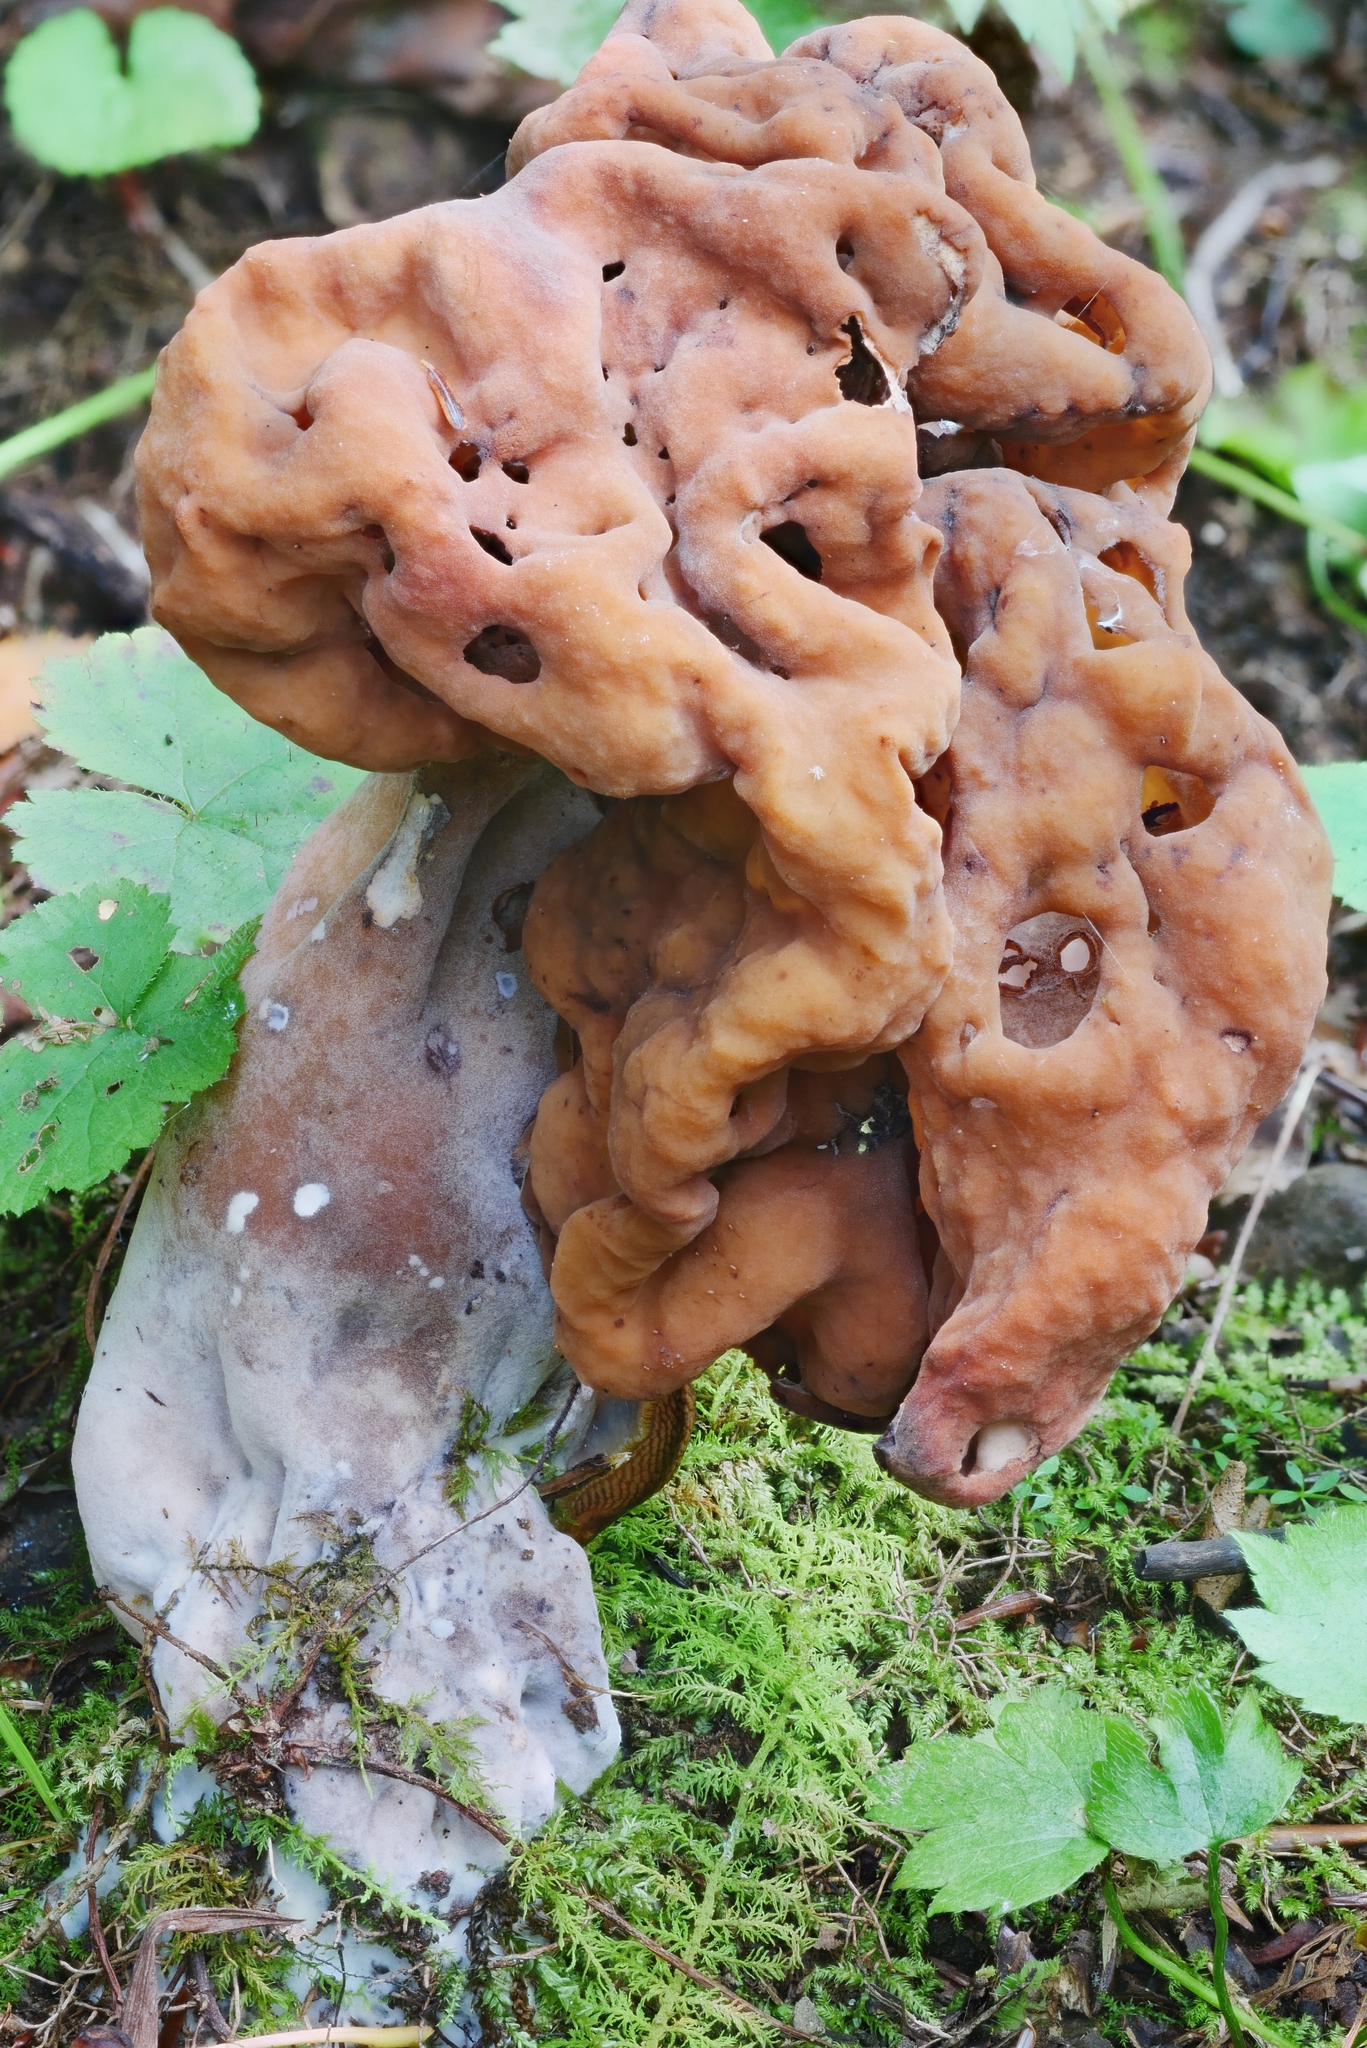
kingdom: Fungi
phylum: Ascomycota
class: Pezizomycetes
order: Pezizales
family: Discinaceae
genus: Gyromitra
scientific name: Gyromitra infula
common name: Pouched false morel
